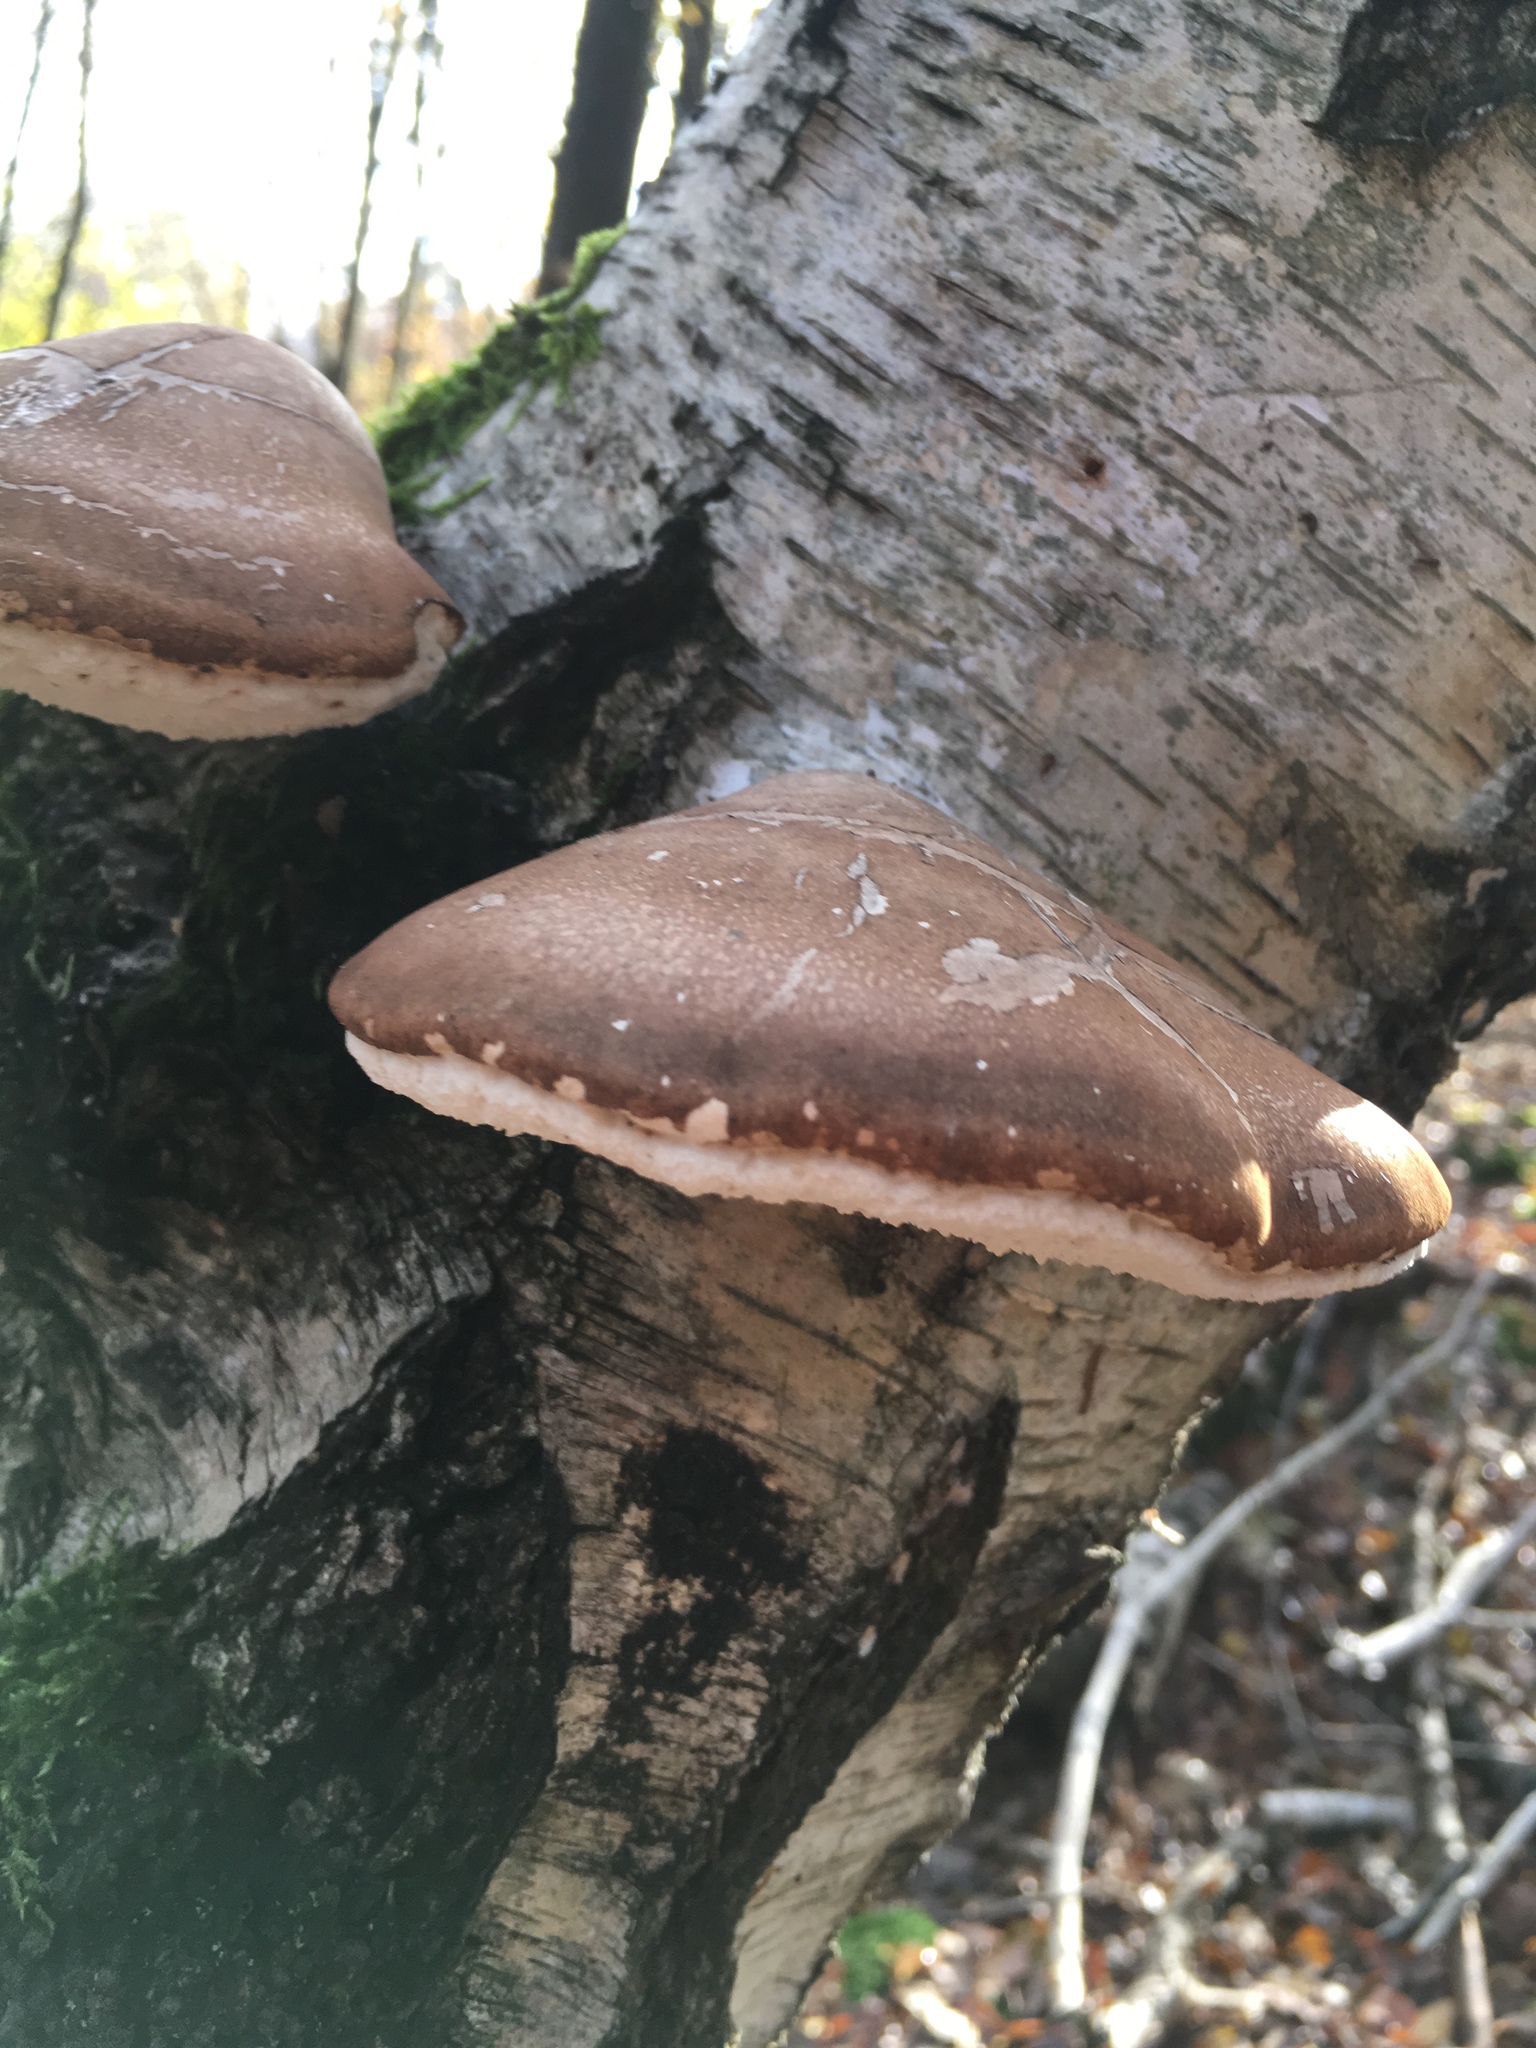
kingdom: Fungi
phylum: Basidiomycota
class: Agaricomycetes
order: Polyporales
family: Fomitopsidaceae
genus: Fomitopsis
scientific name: Fomitopsis betulina
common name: Birch polypore
